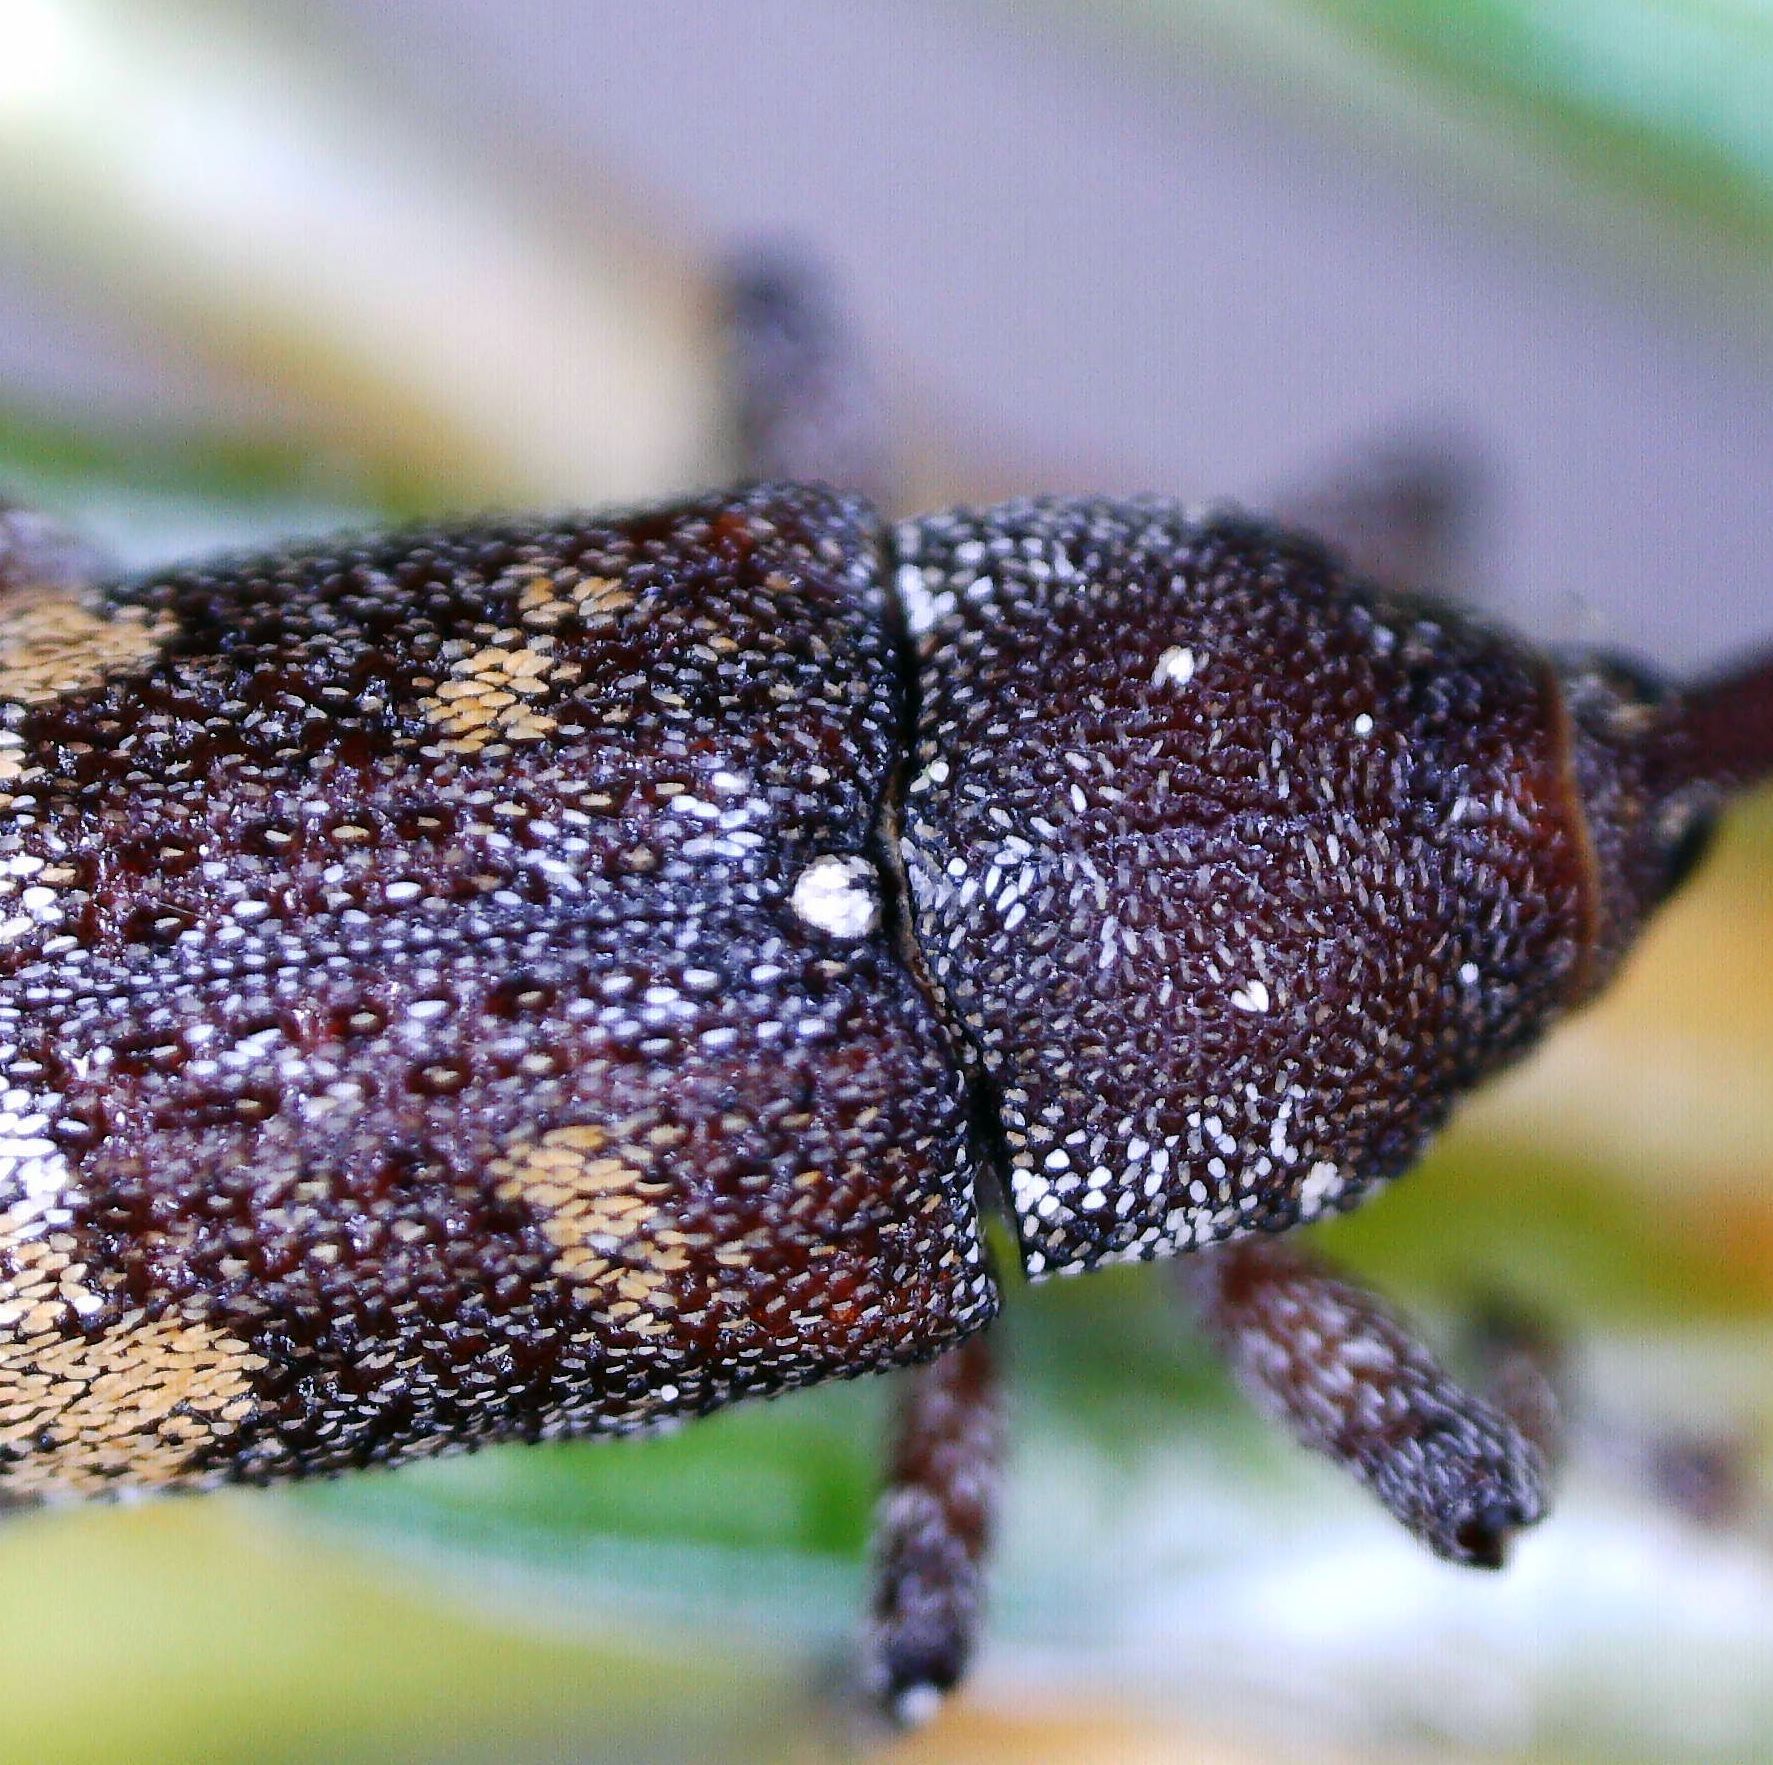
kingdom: Animalia
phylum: Arthropoda
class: Insecta
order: Coleoptera
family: Curculionidae
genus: Pissodes
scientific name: Pissodes castaneus
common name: Banded pine weevil
